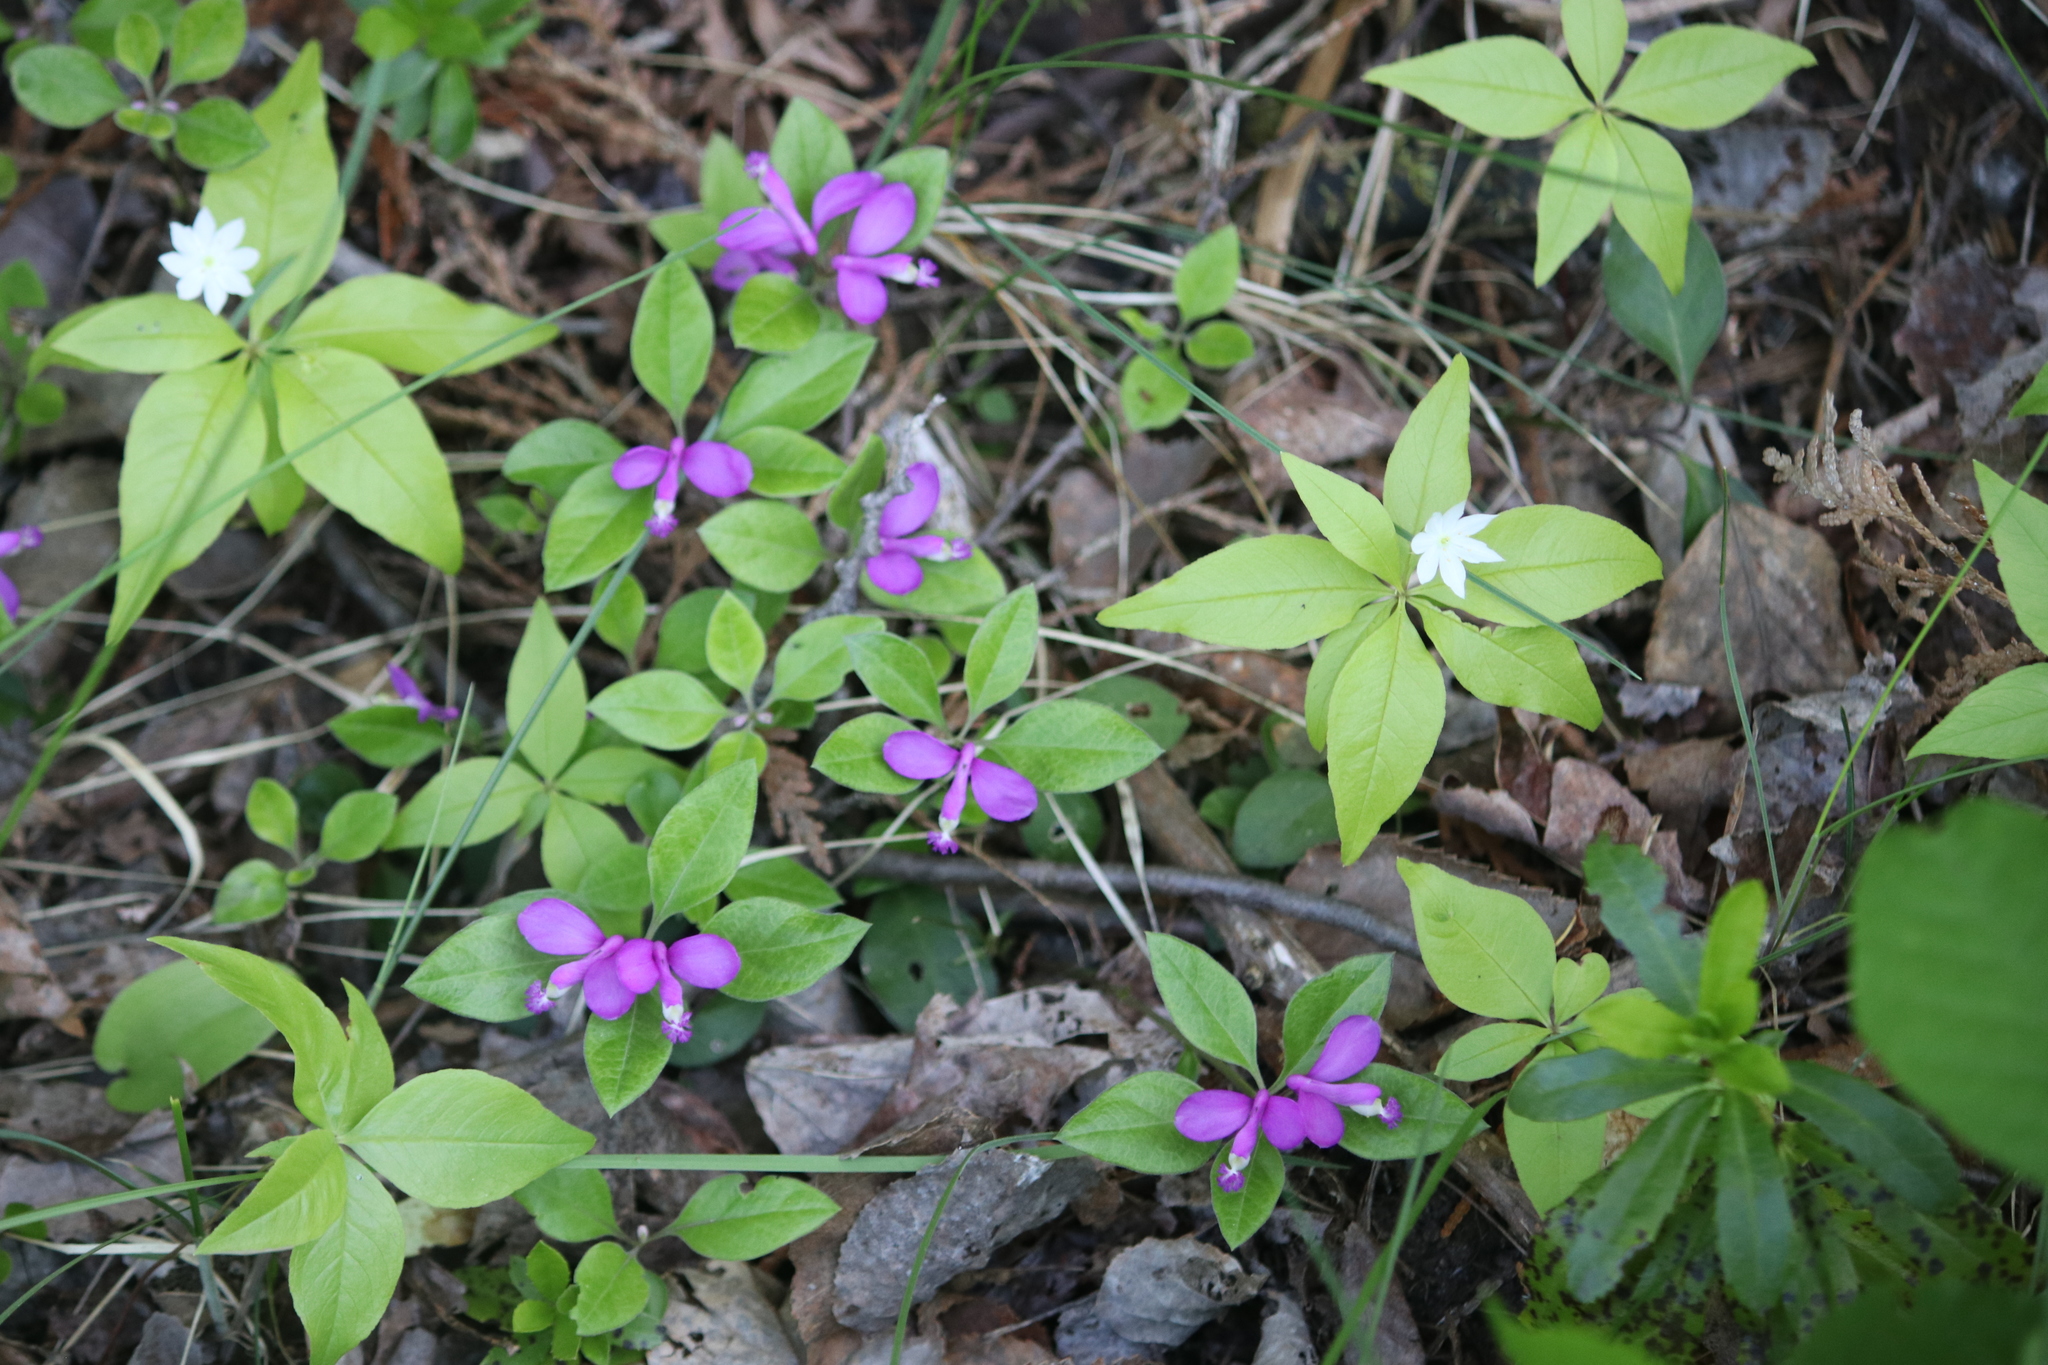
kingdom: Plantae
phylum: Tracheophyta
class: Magnoliopsida
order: Fabales
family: Polygalaceae
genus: Polygaloides
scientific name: Polygaloides paucifolia
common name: Bird-on-the-wing
